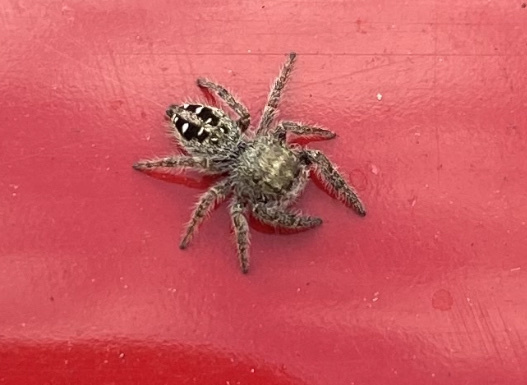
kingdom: Animalia
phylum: Arthropoda
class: Arachnida
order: Araneae
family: Salticidae
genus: Phidippus
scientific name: Phidippus purpuratus
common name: Marbled purple jumping spider
